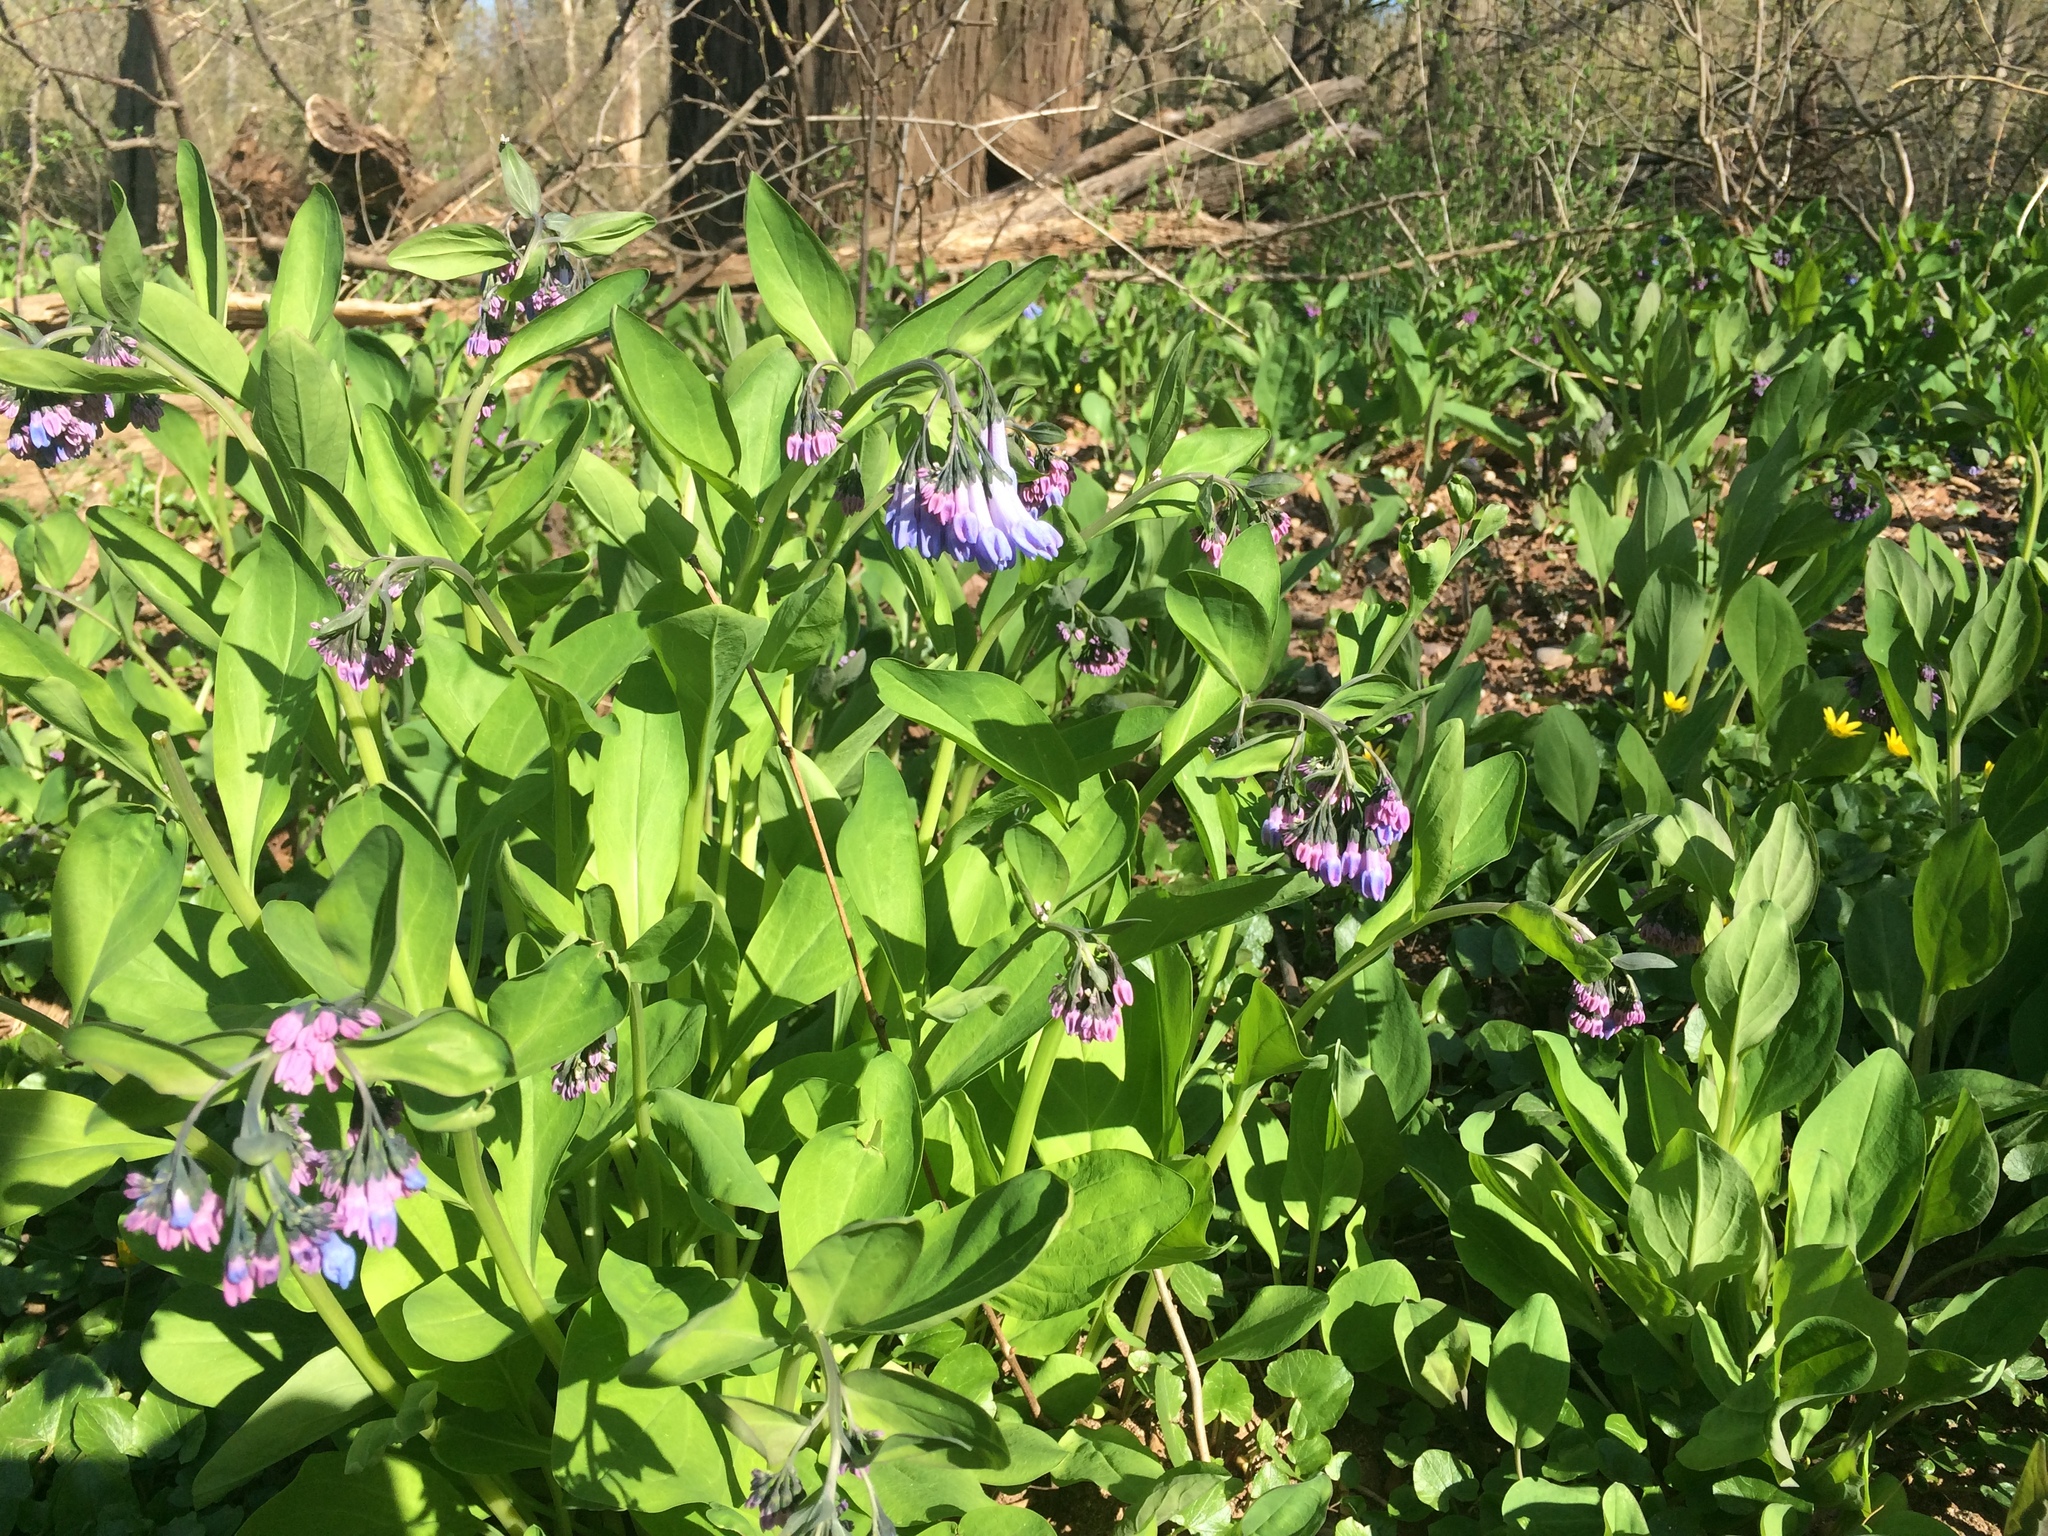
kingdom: Plantae
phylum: Tracheophyta
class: Magnoliopsida
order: Boraginales
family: Boraginaceae
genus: Mertensia
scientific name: Mertensia virginica
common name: Virginia bluebells
